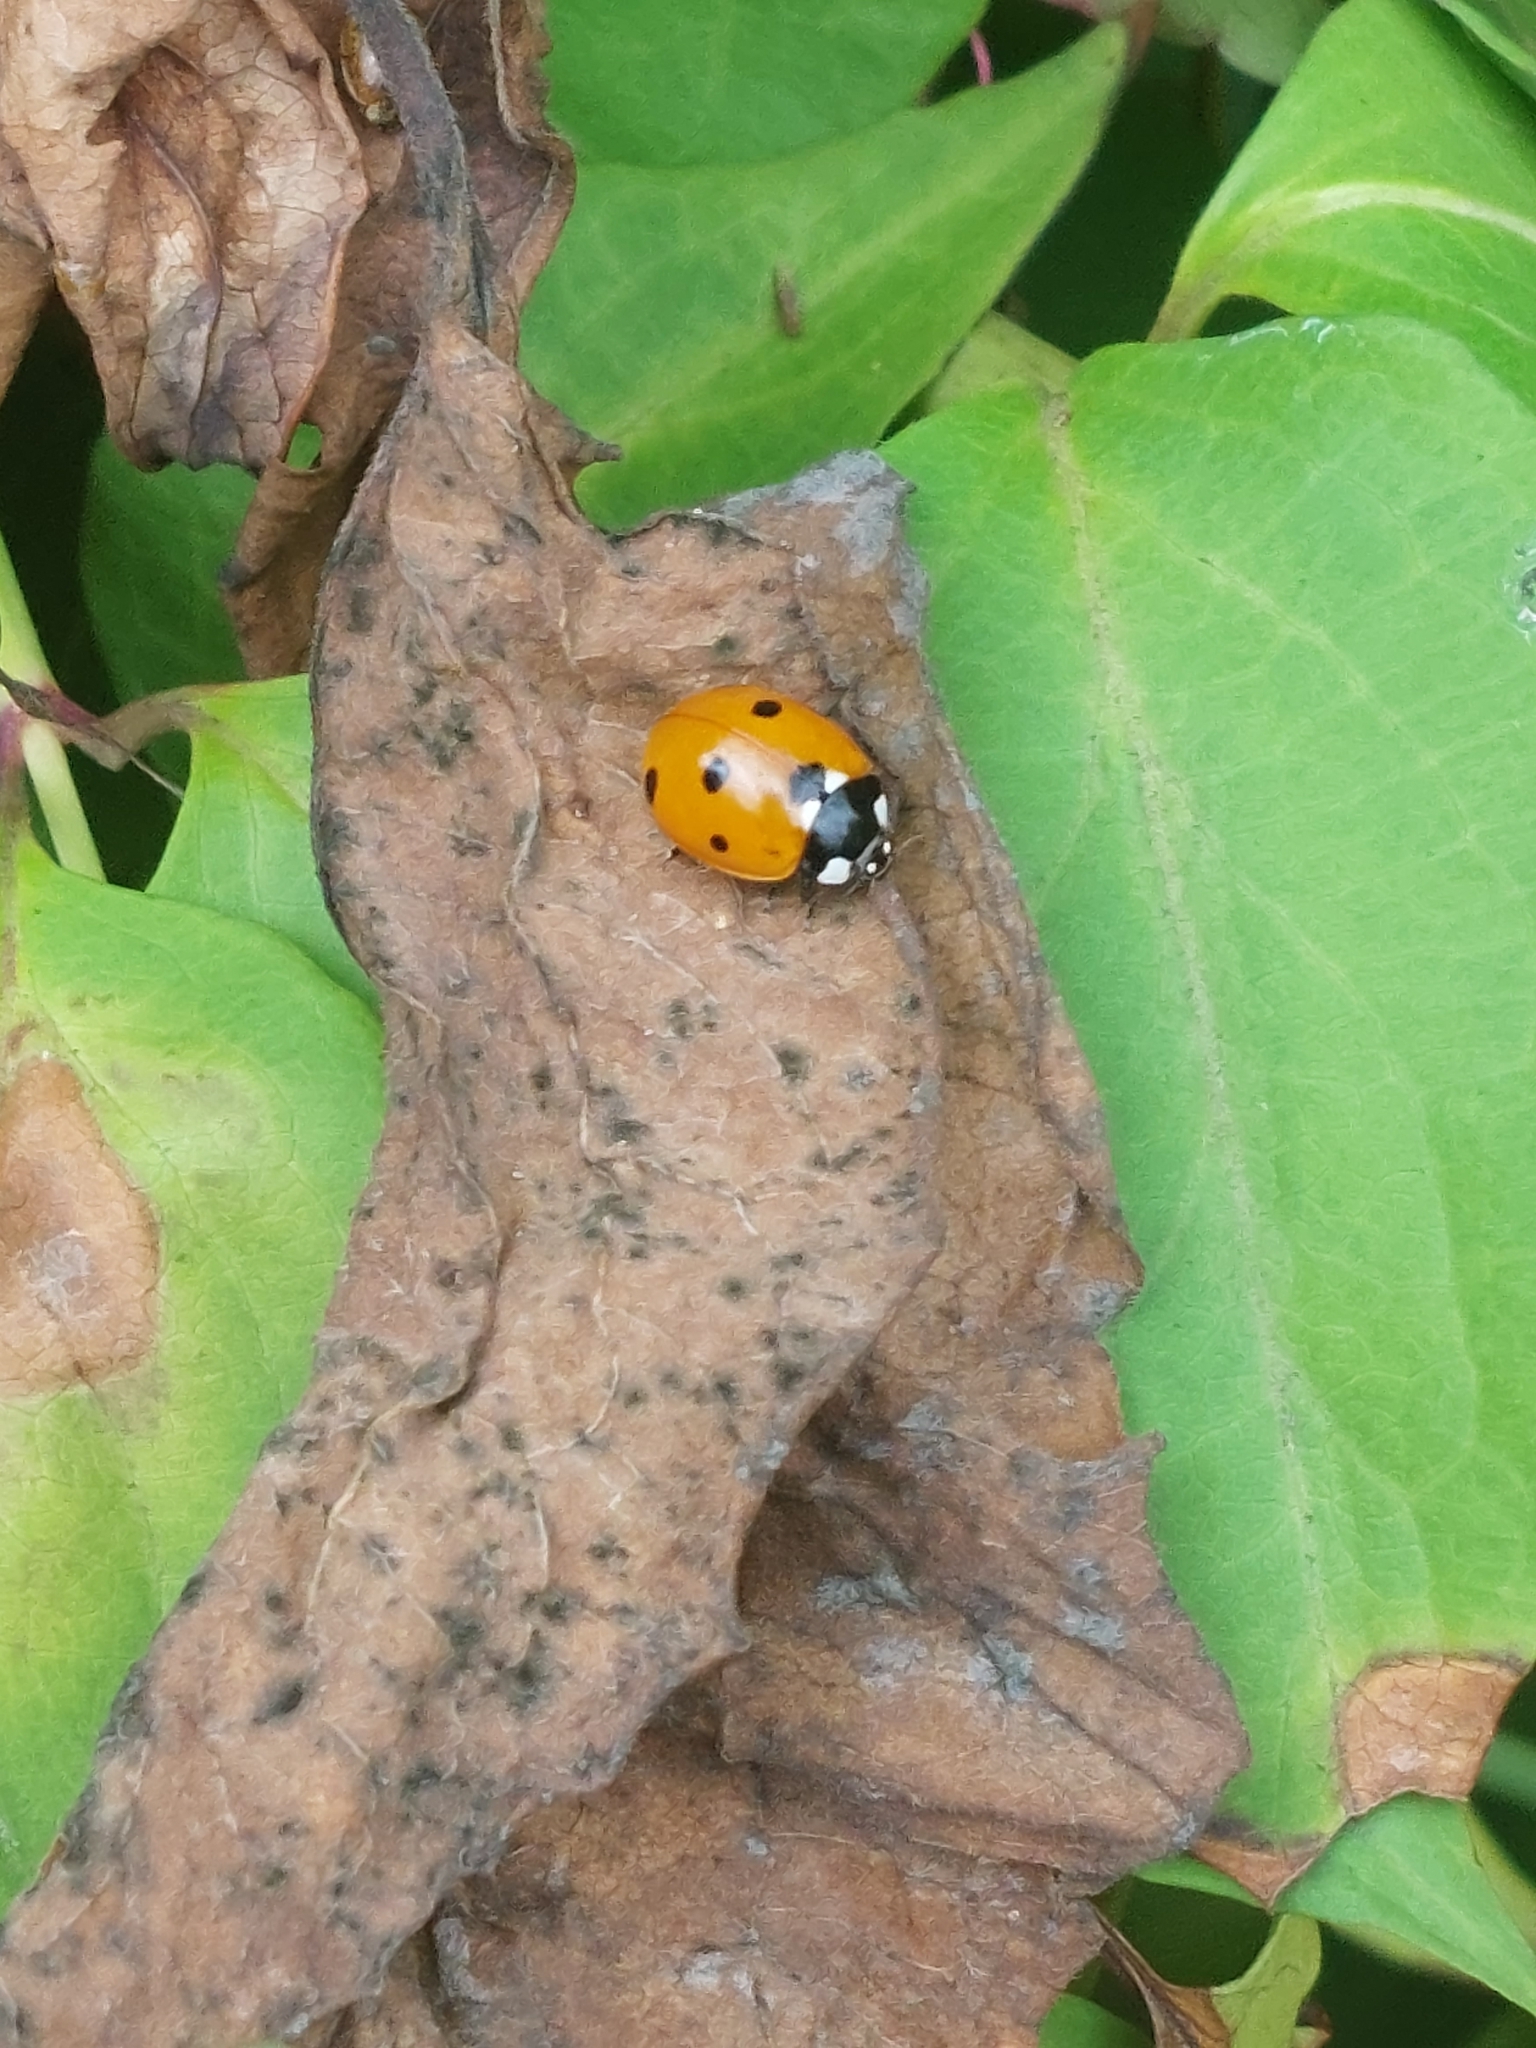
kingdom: Animalia
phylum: Arthropoda
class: Insecta
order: Coleoptera
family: Coccinellidae
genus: Coccinella
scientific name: Coccinella septempunctata
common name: Sevenspotted lady beetle
